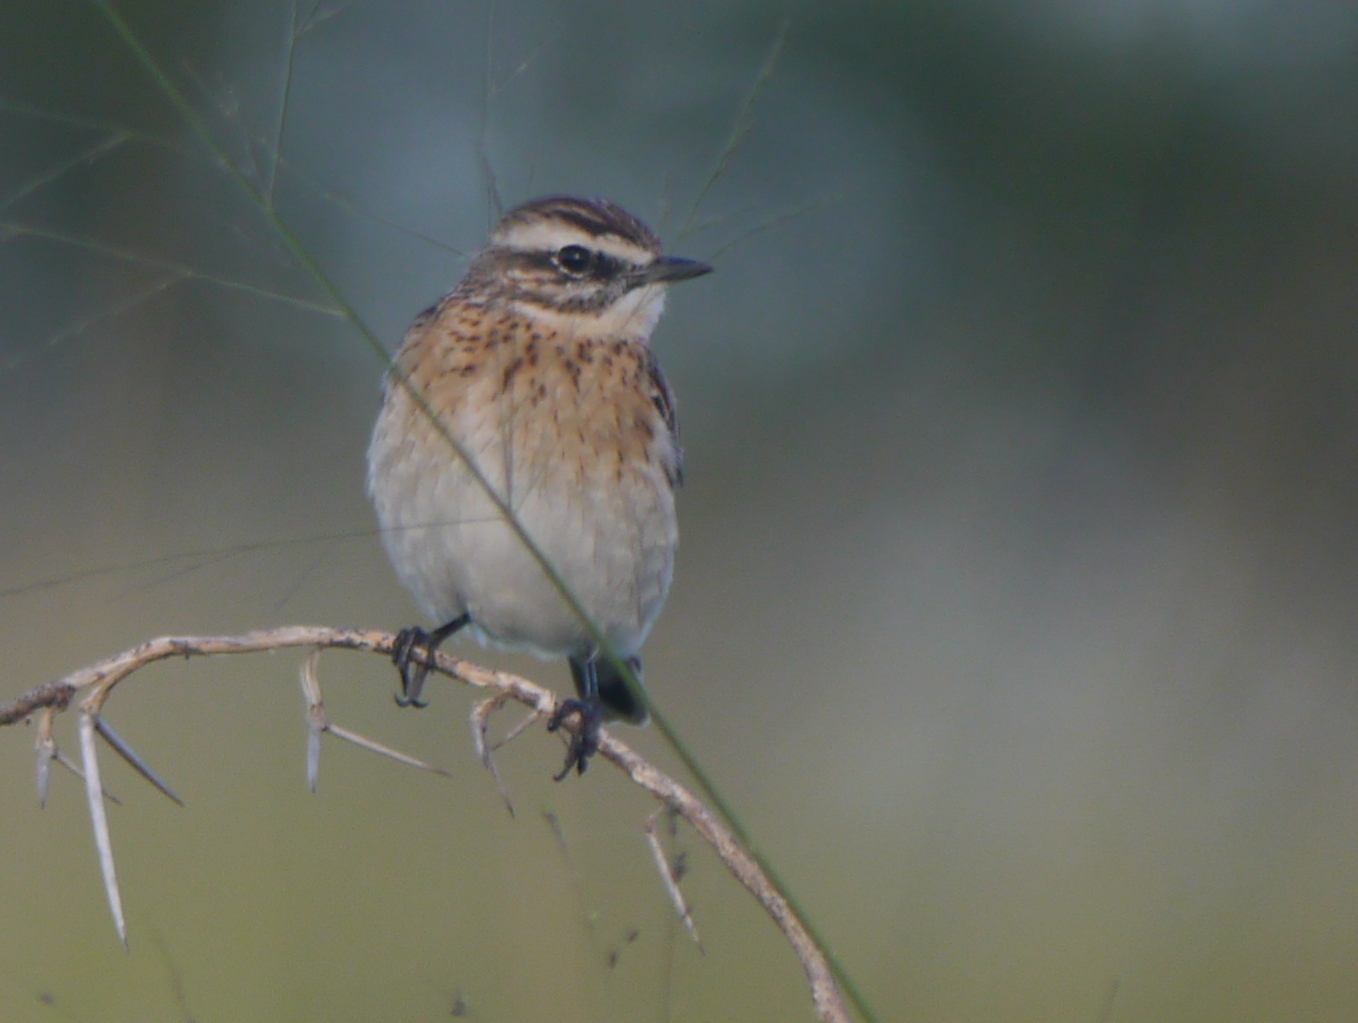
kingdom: Animalia
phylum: Chordata
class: Aves
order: Passeriformes
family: Muscicapidae
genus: Saxicola
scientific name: Saxicola rubetra
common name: Whinchat
